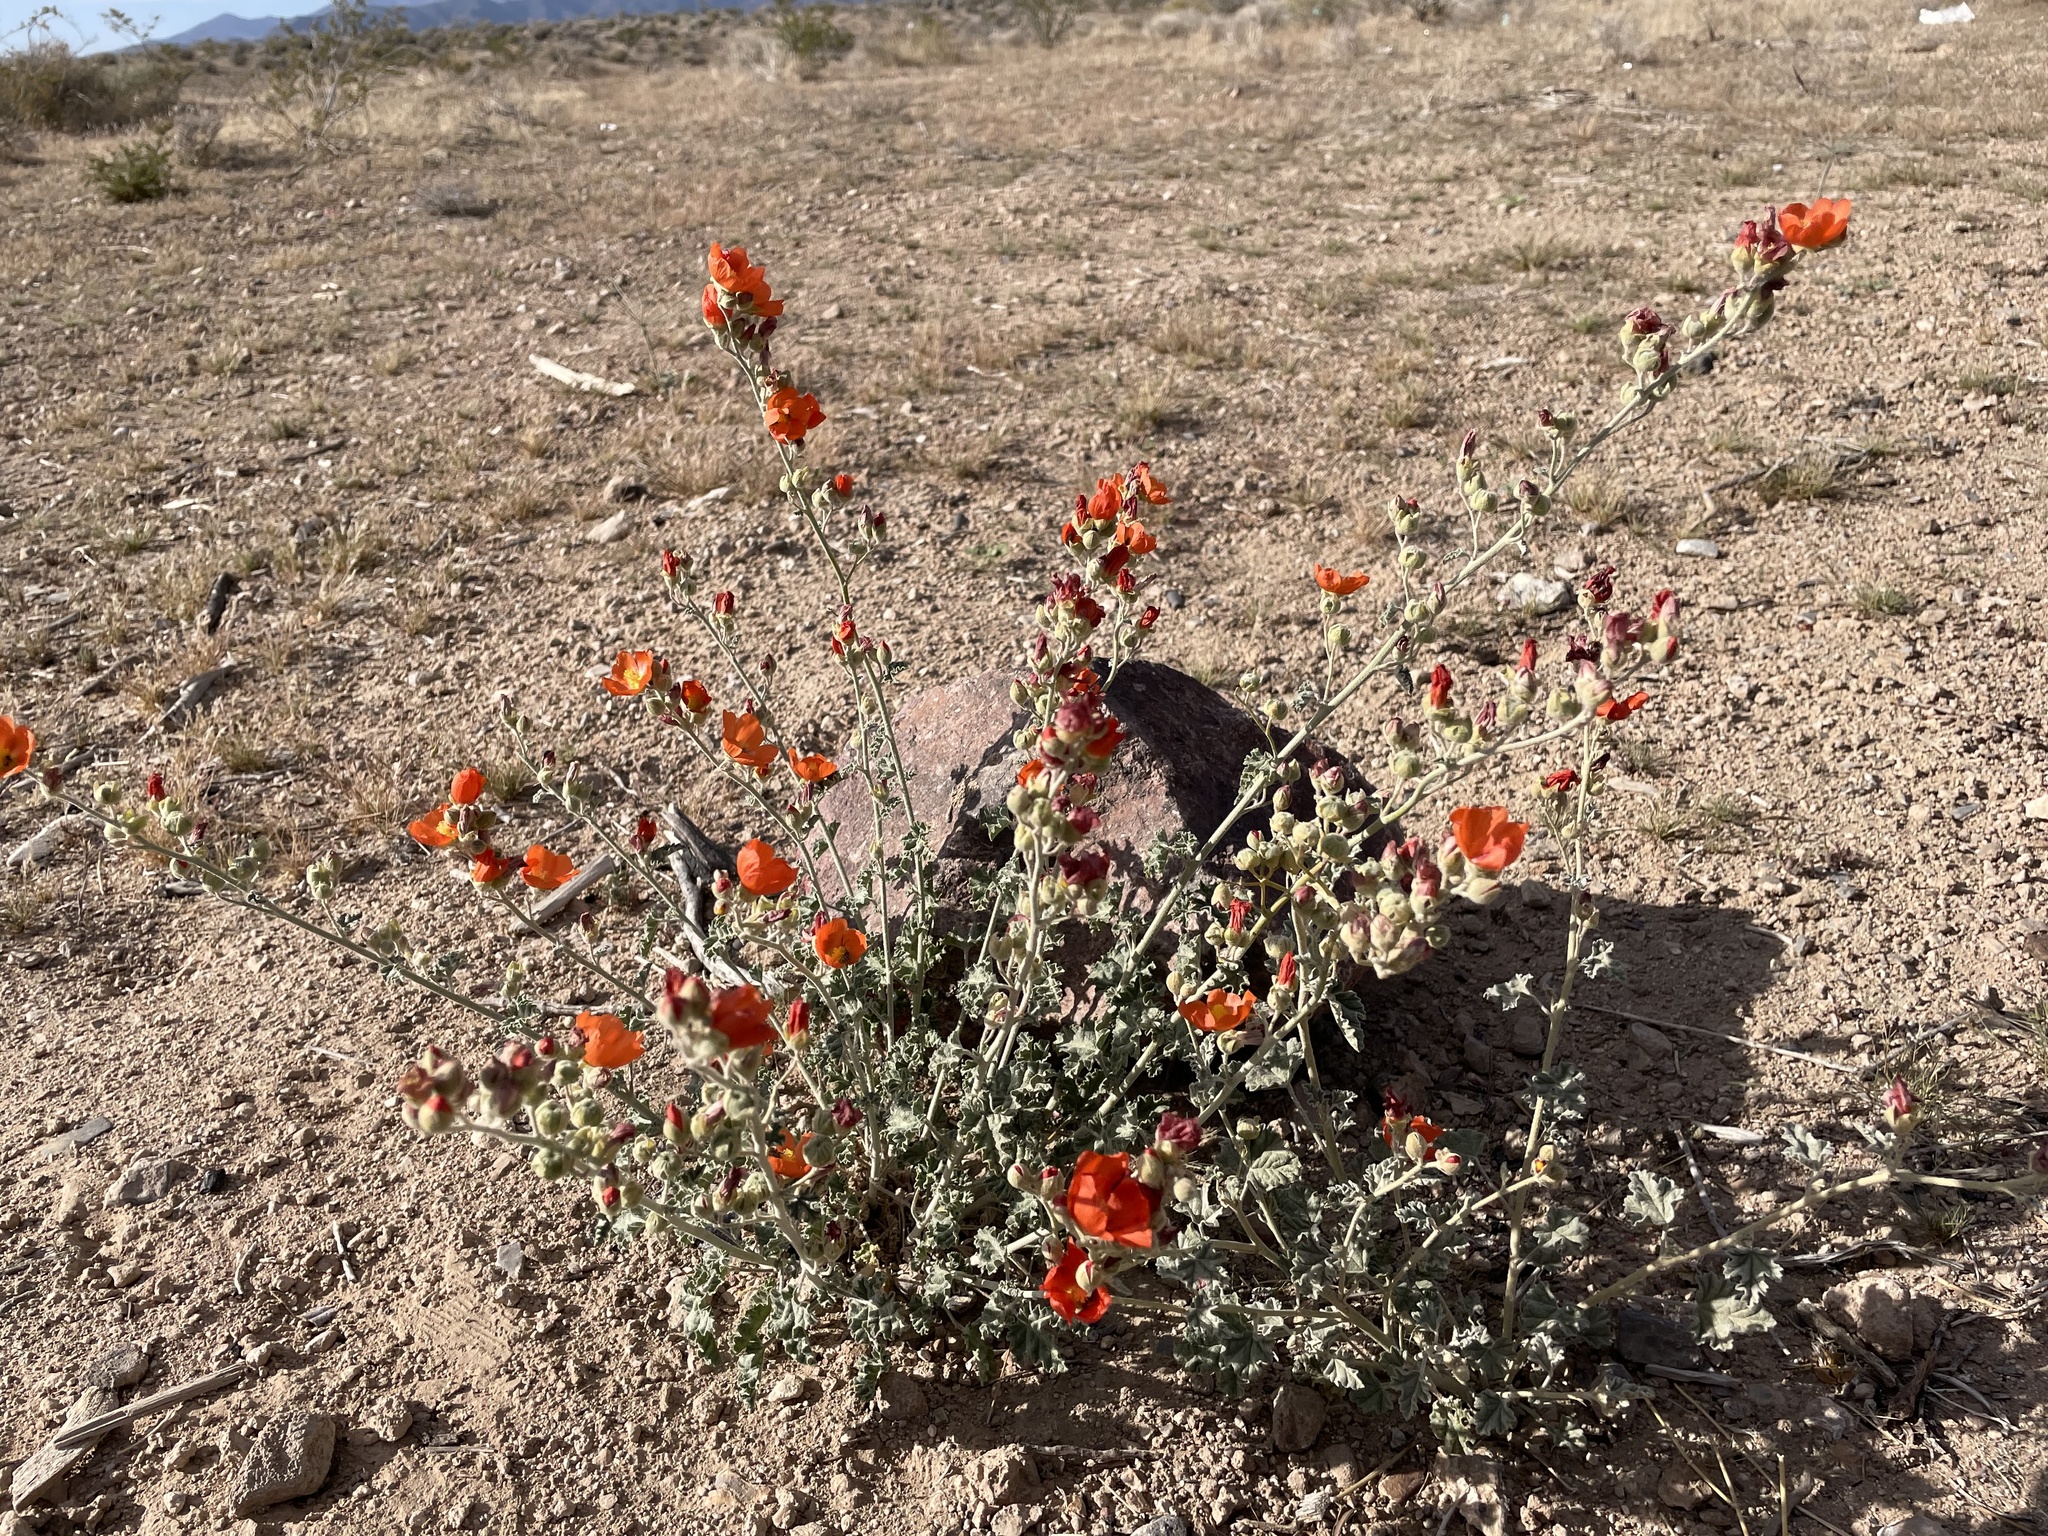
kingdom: Plantae
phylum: Tracheophyta
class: Magnoliopsida
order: Malvales
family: Malvaceae
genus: Sphaeralcea
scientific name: Sphaeralcea ambigua
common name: Apricot globe-mallow
